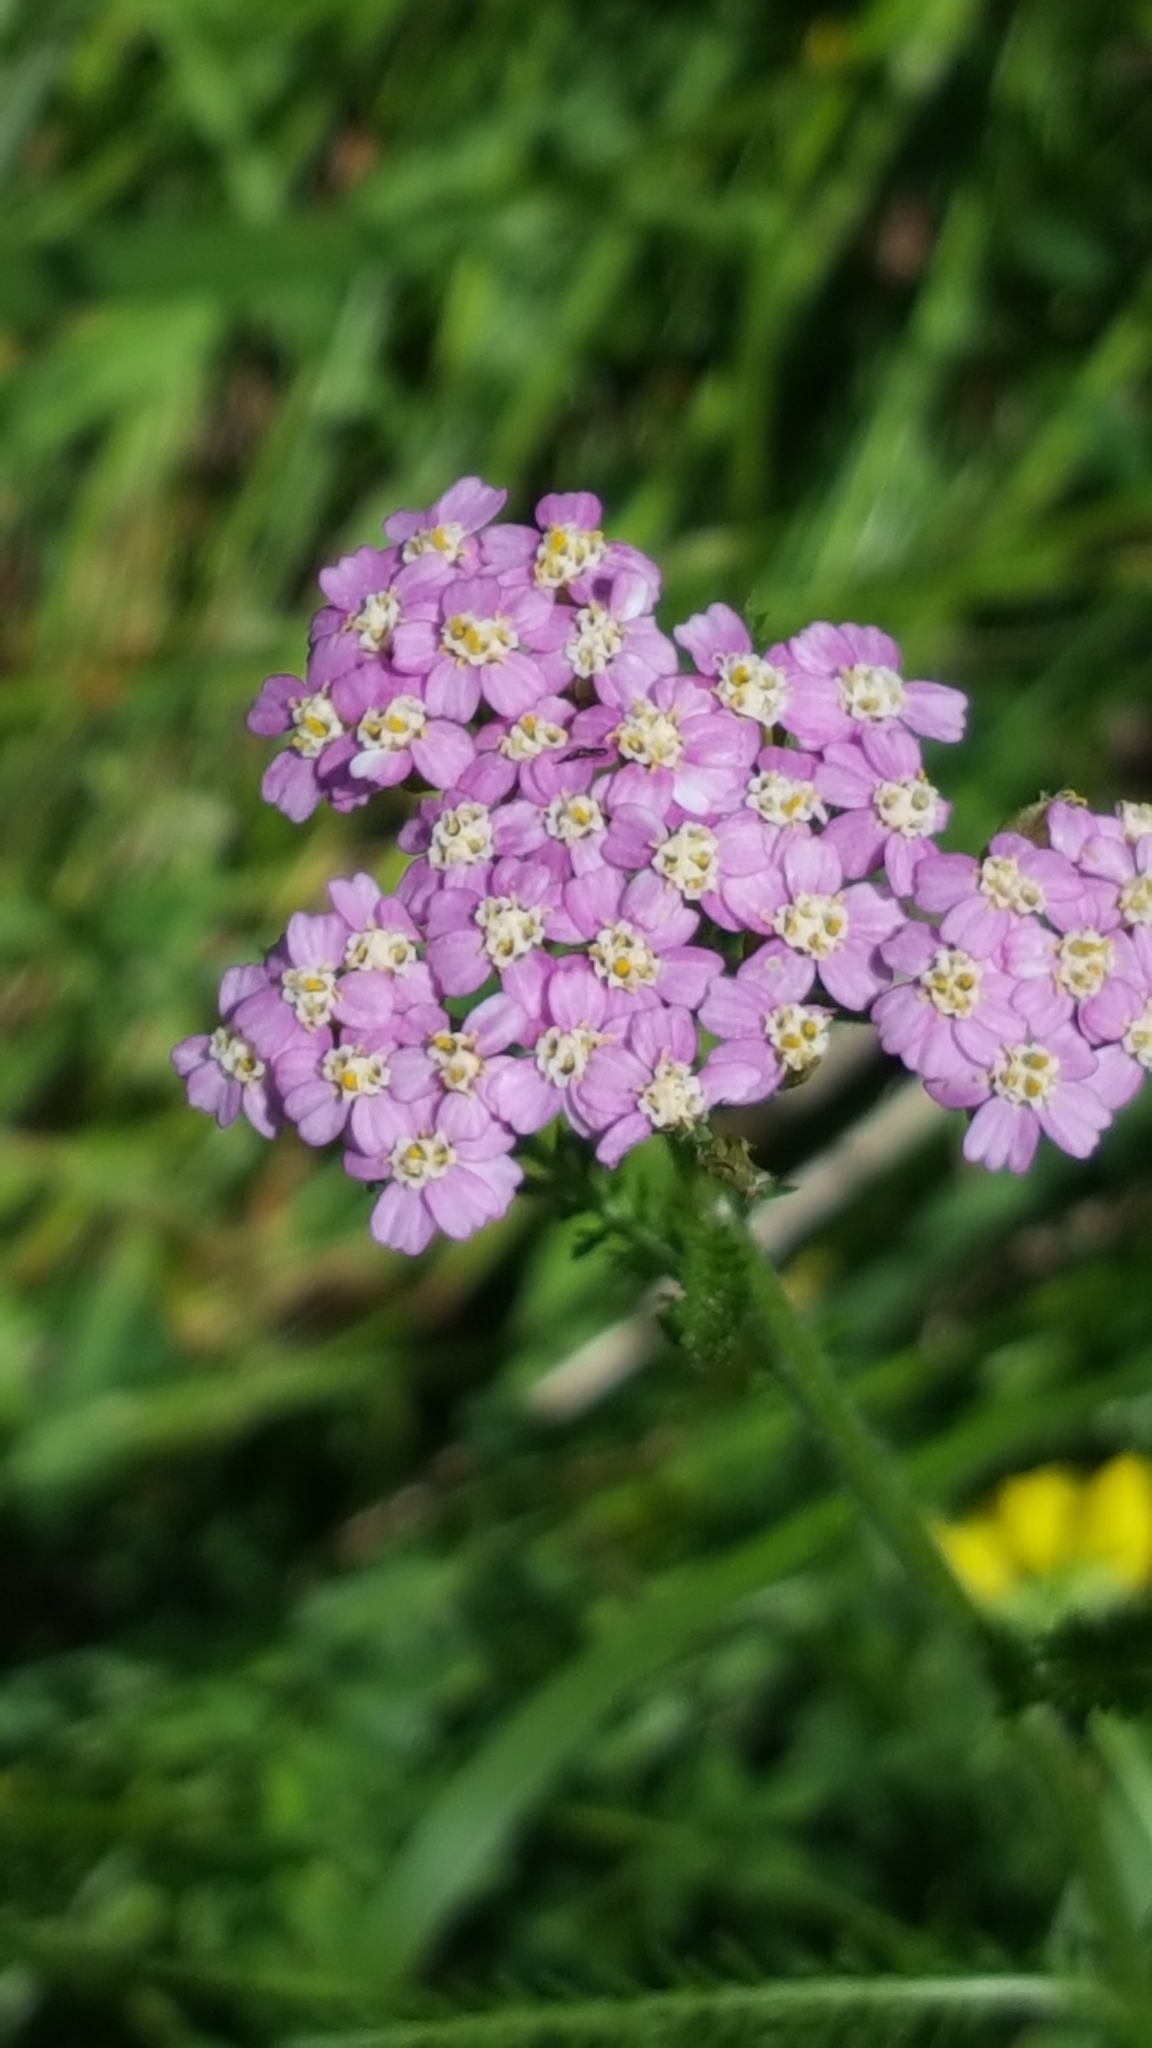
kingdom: Plantae
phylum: Tracheophyta
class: Magnoliopsida
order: Asterales
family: Asteraceae
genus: Achillea
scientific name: Achillea millefolium
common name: Yarrow
